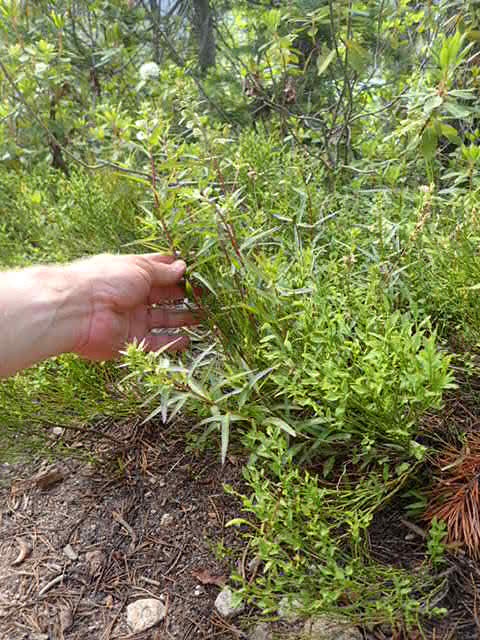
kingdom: Plantae
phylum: Tracheophyta
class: Magnoliopsida
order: Lamiales
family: Orobanchaceae
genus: Pedicularis
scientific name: Pedicularis racemosa
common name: Leafy lousewort
